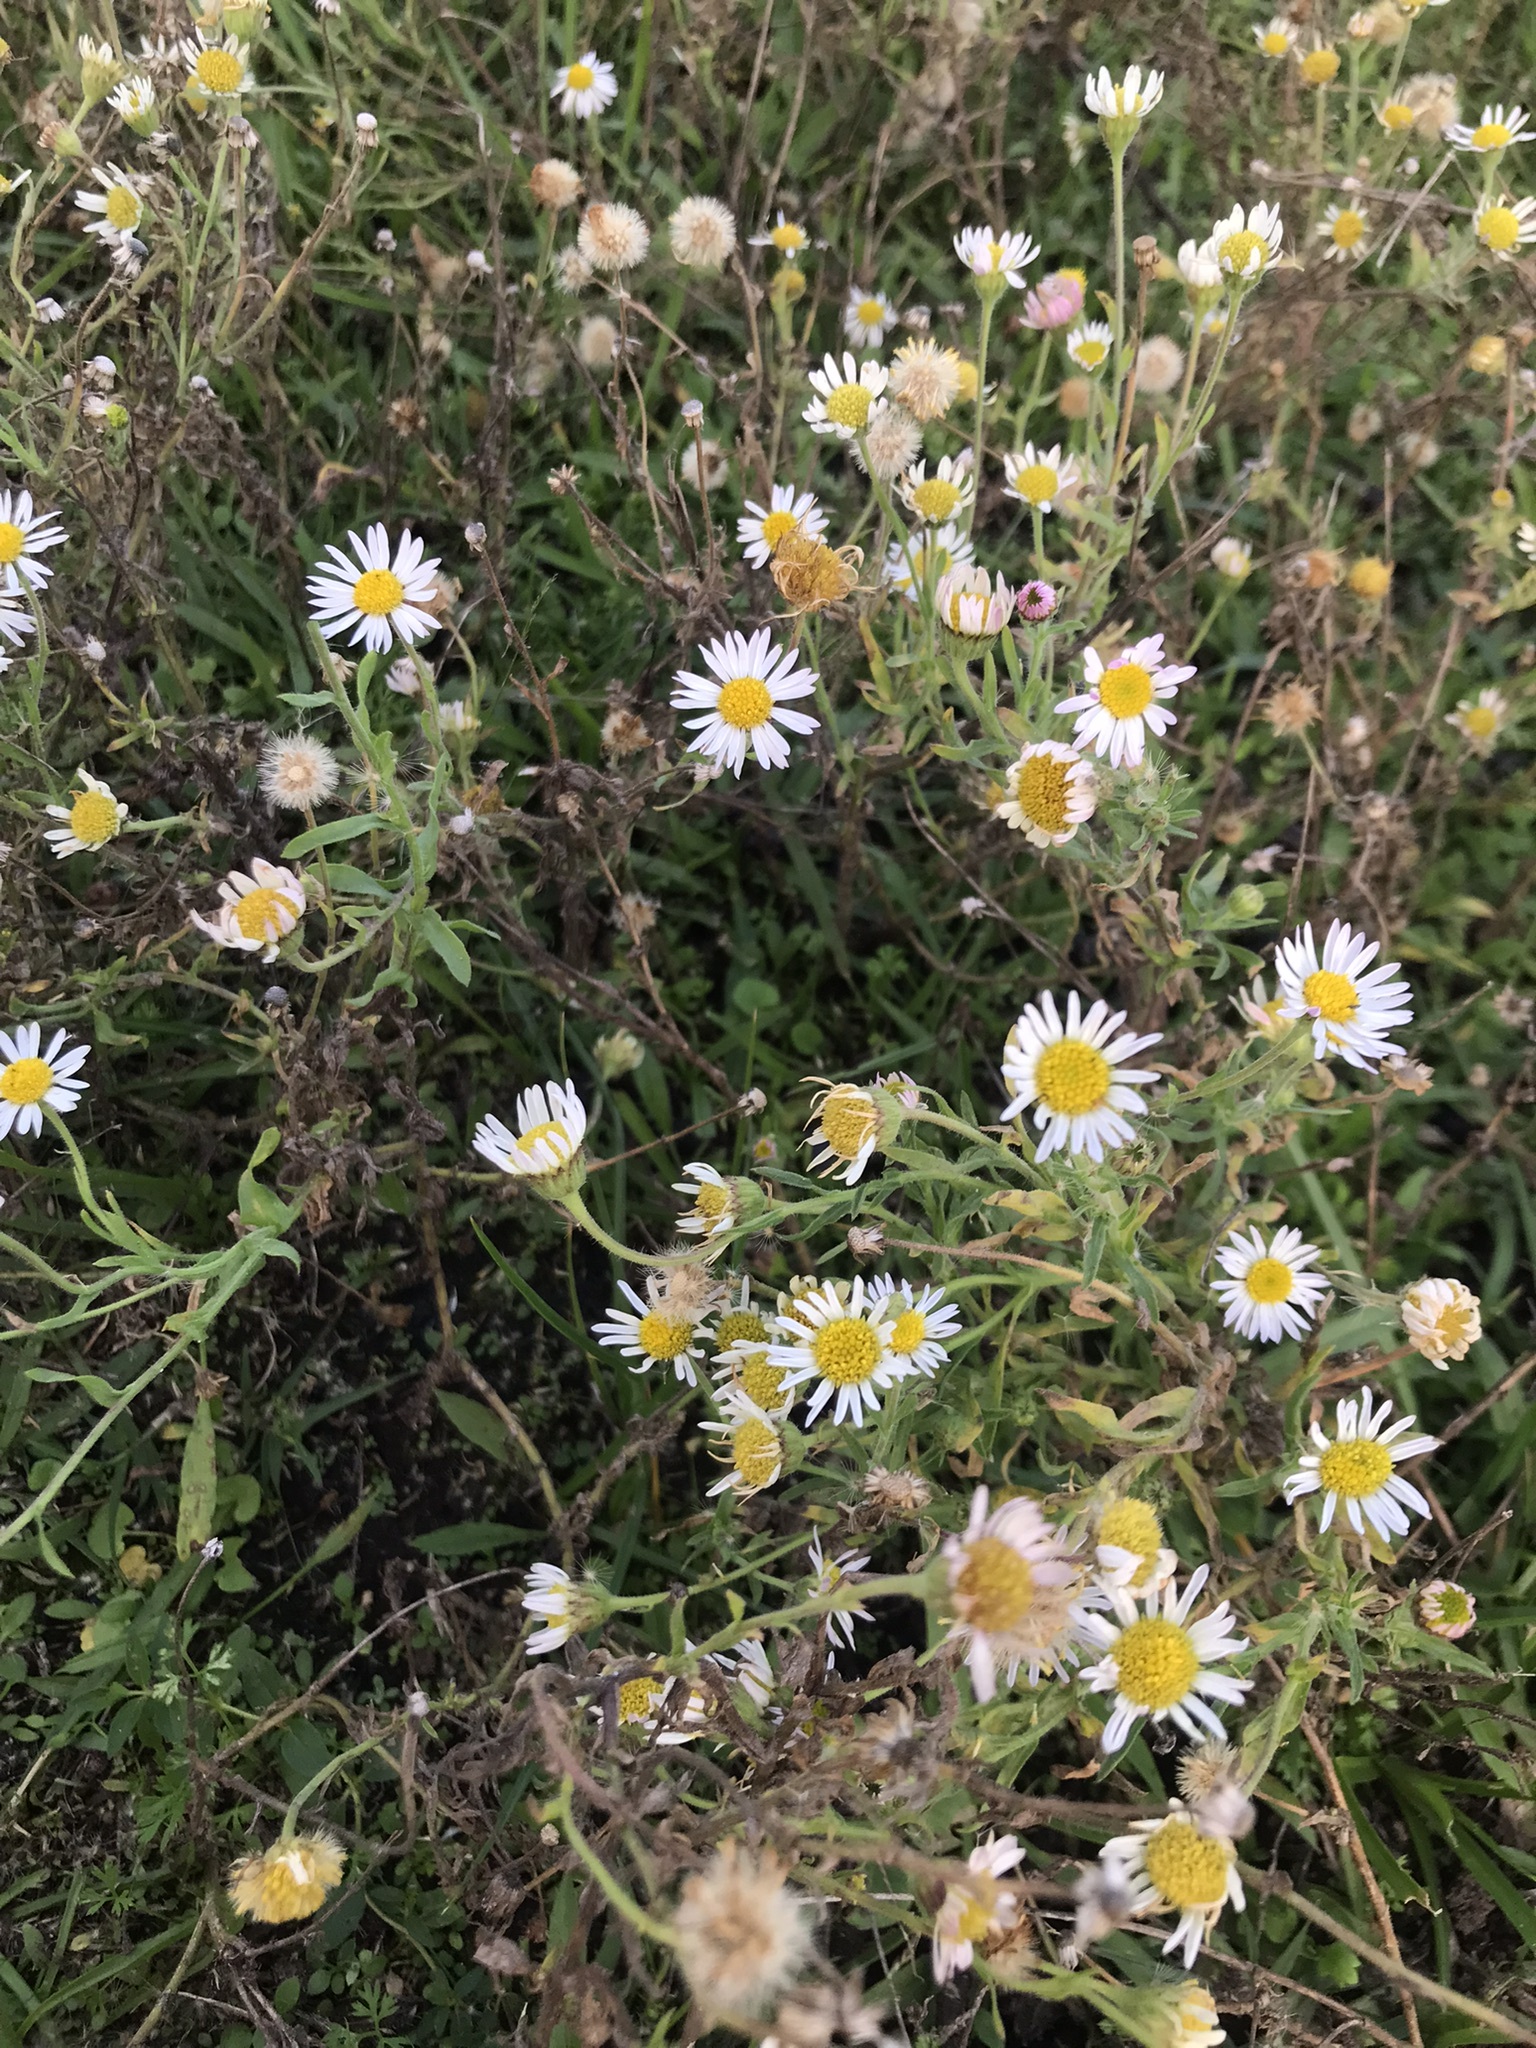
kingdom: Plantae
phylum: Tracheophyta
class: Magnoliopsida
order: Asterales
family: Asteraceae
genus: Hysterionica
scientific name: Hysterionica resinosa
